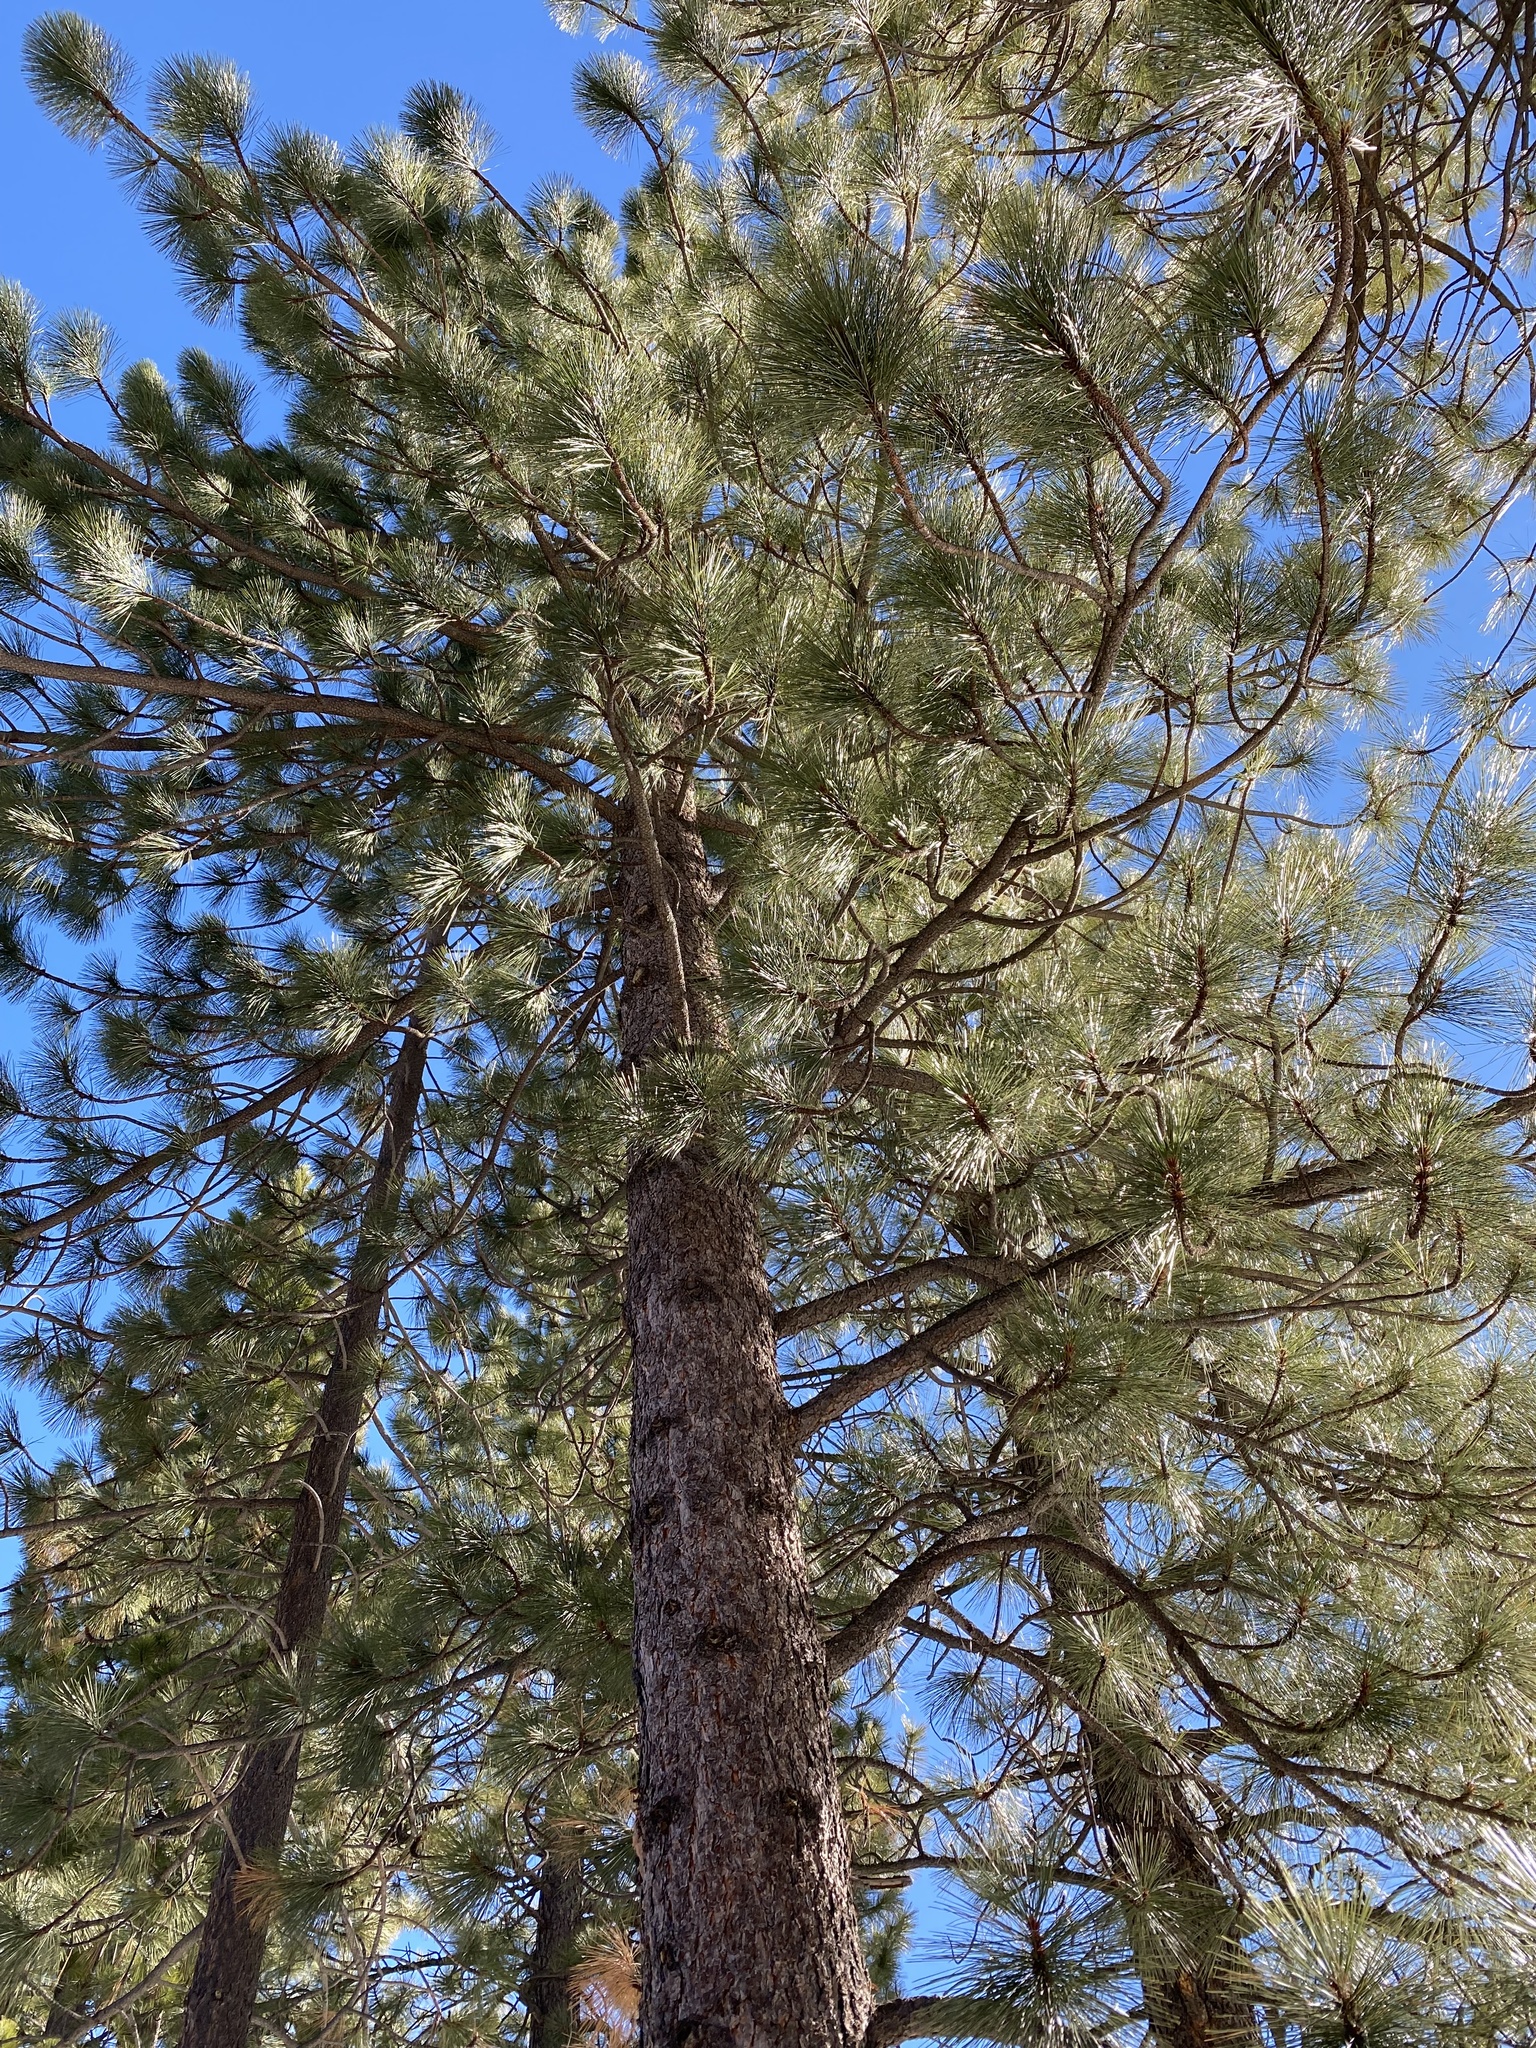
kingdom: Plantae
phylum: Tracheophyta
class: Pinopsida
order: Pinales
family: Pinaceae
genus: Pinus
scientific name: Pinus jeffreyi
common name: Jeffrey pine
